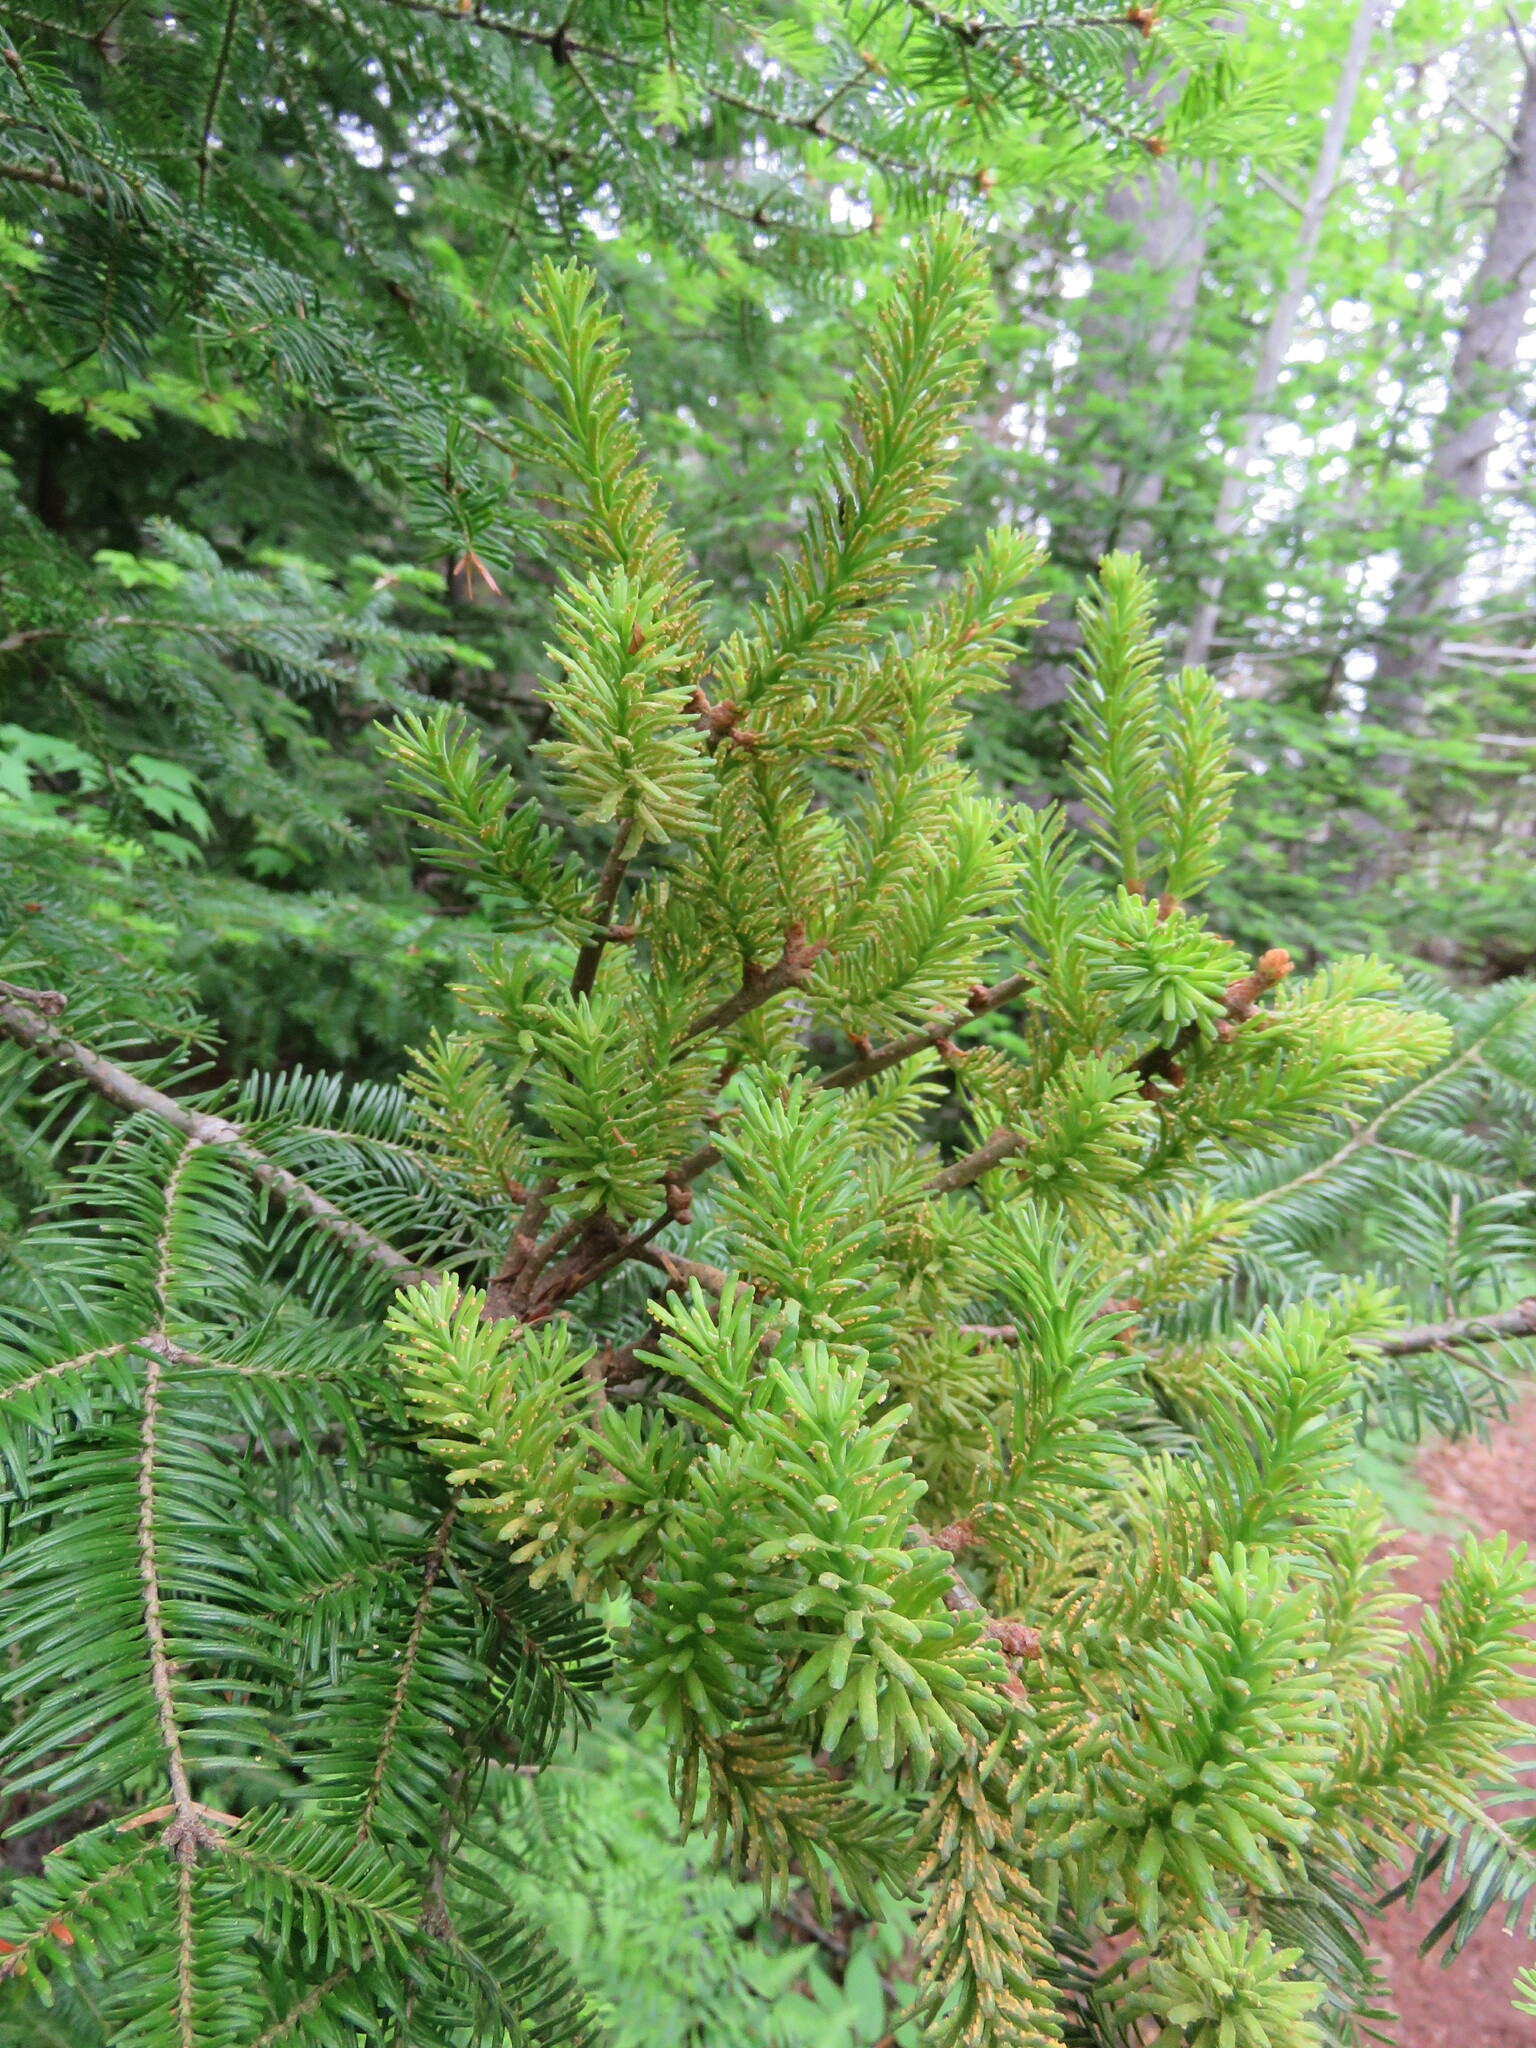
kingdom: Fungi
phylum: Basidiomycota
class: Pucciniomycetes
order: Pucciniales
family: Pucciniastraceae
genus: Melampsorella
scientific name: Melampsorella elatina
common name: Fir broom rust
